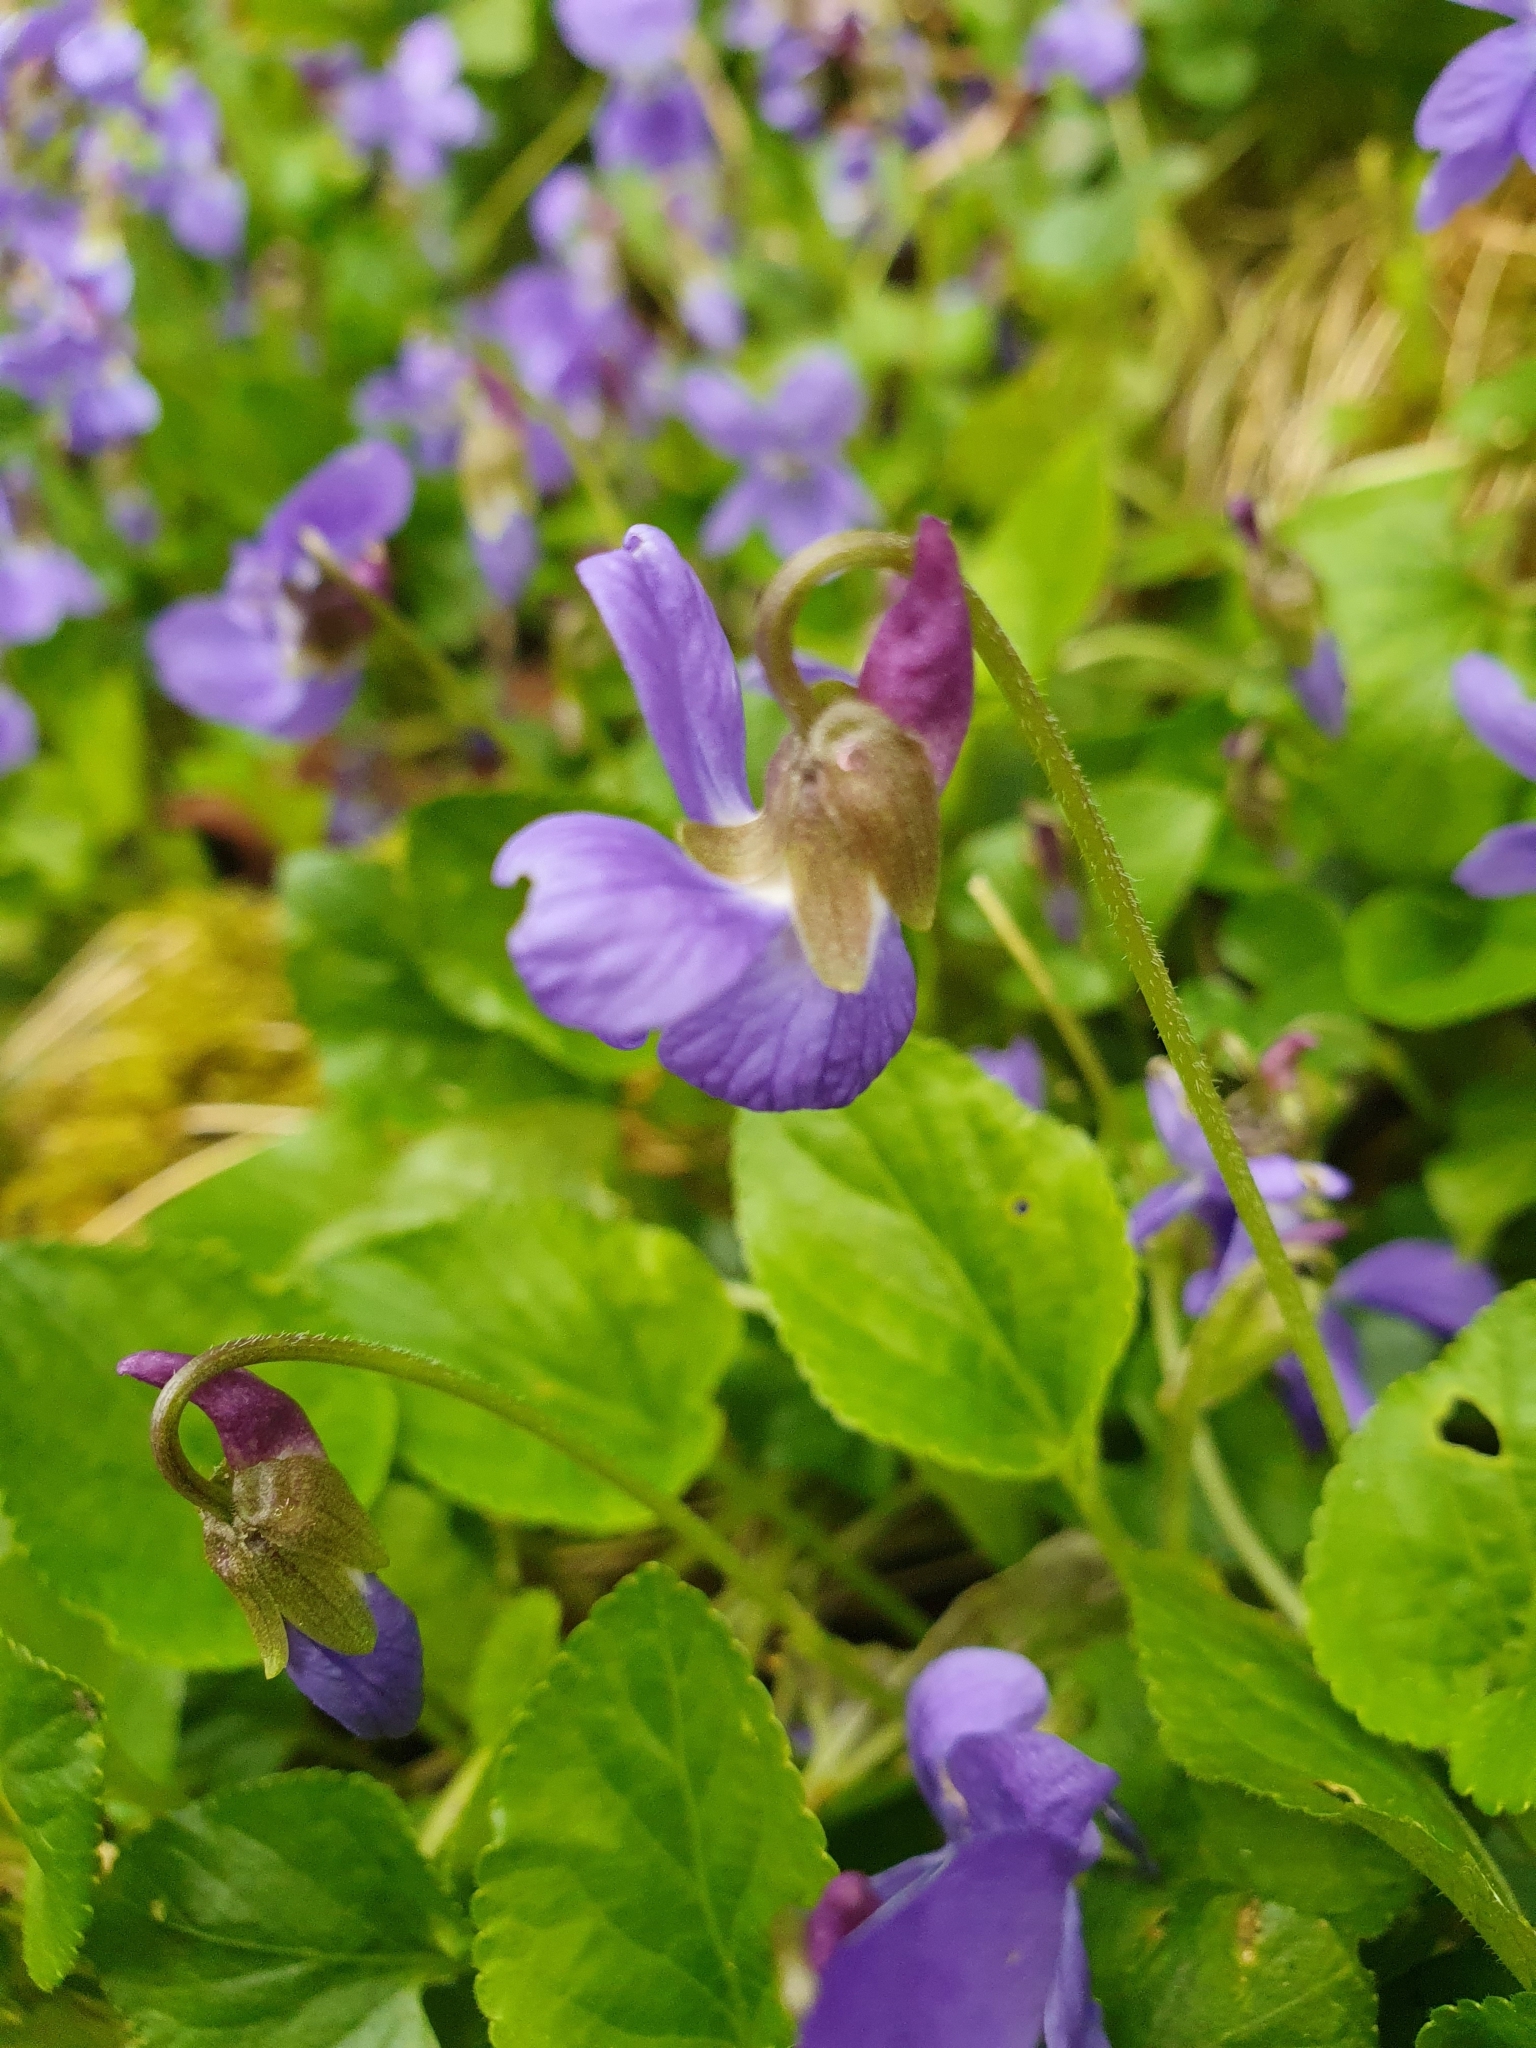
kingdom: Plantae
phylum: Tracheophyta
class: Magnoliopsida
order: Malpighiales
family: Violaceae
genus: Viola
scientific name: Viola hirta
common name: Hairy violet
